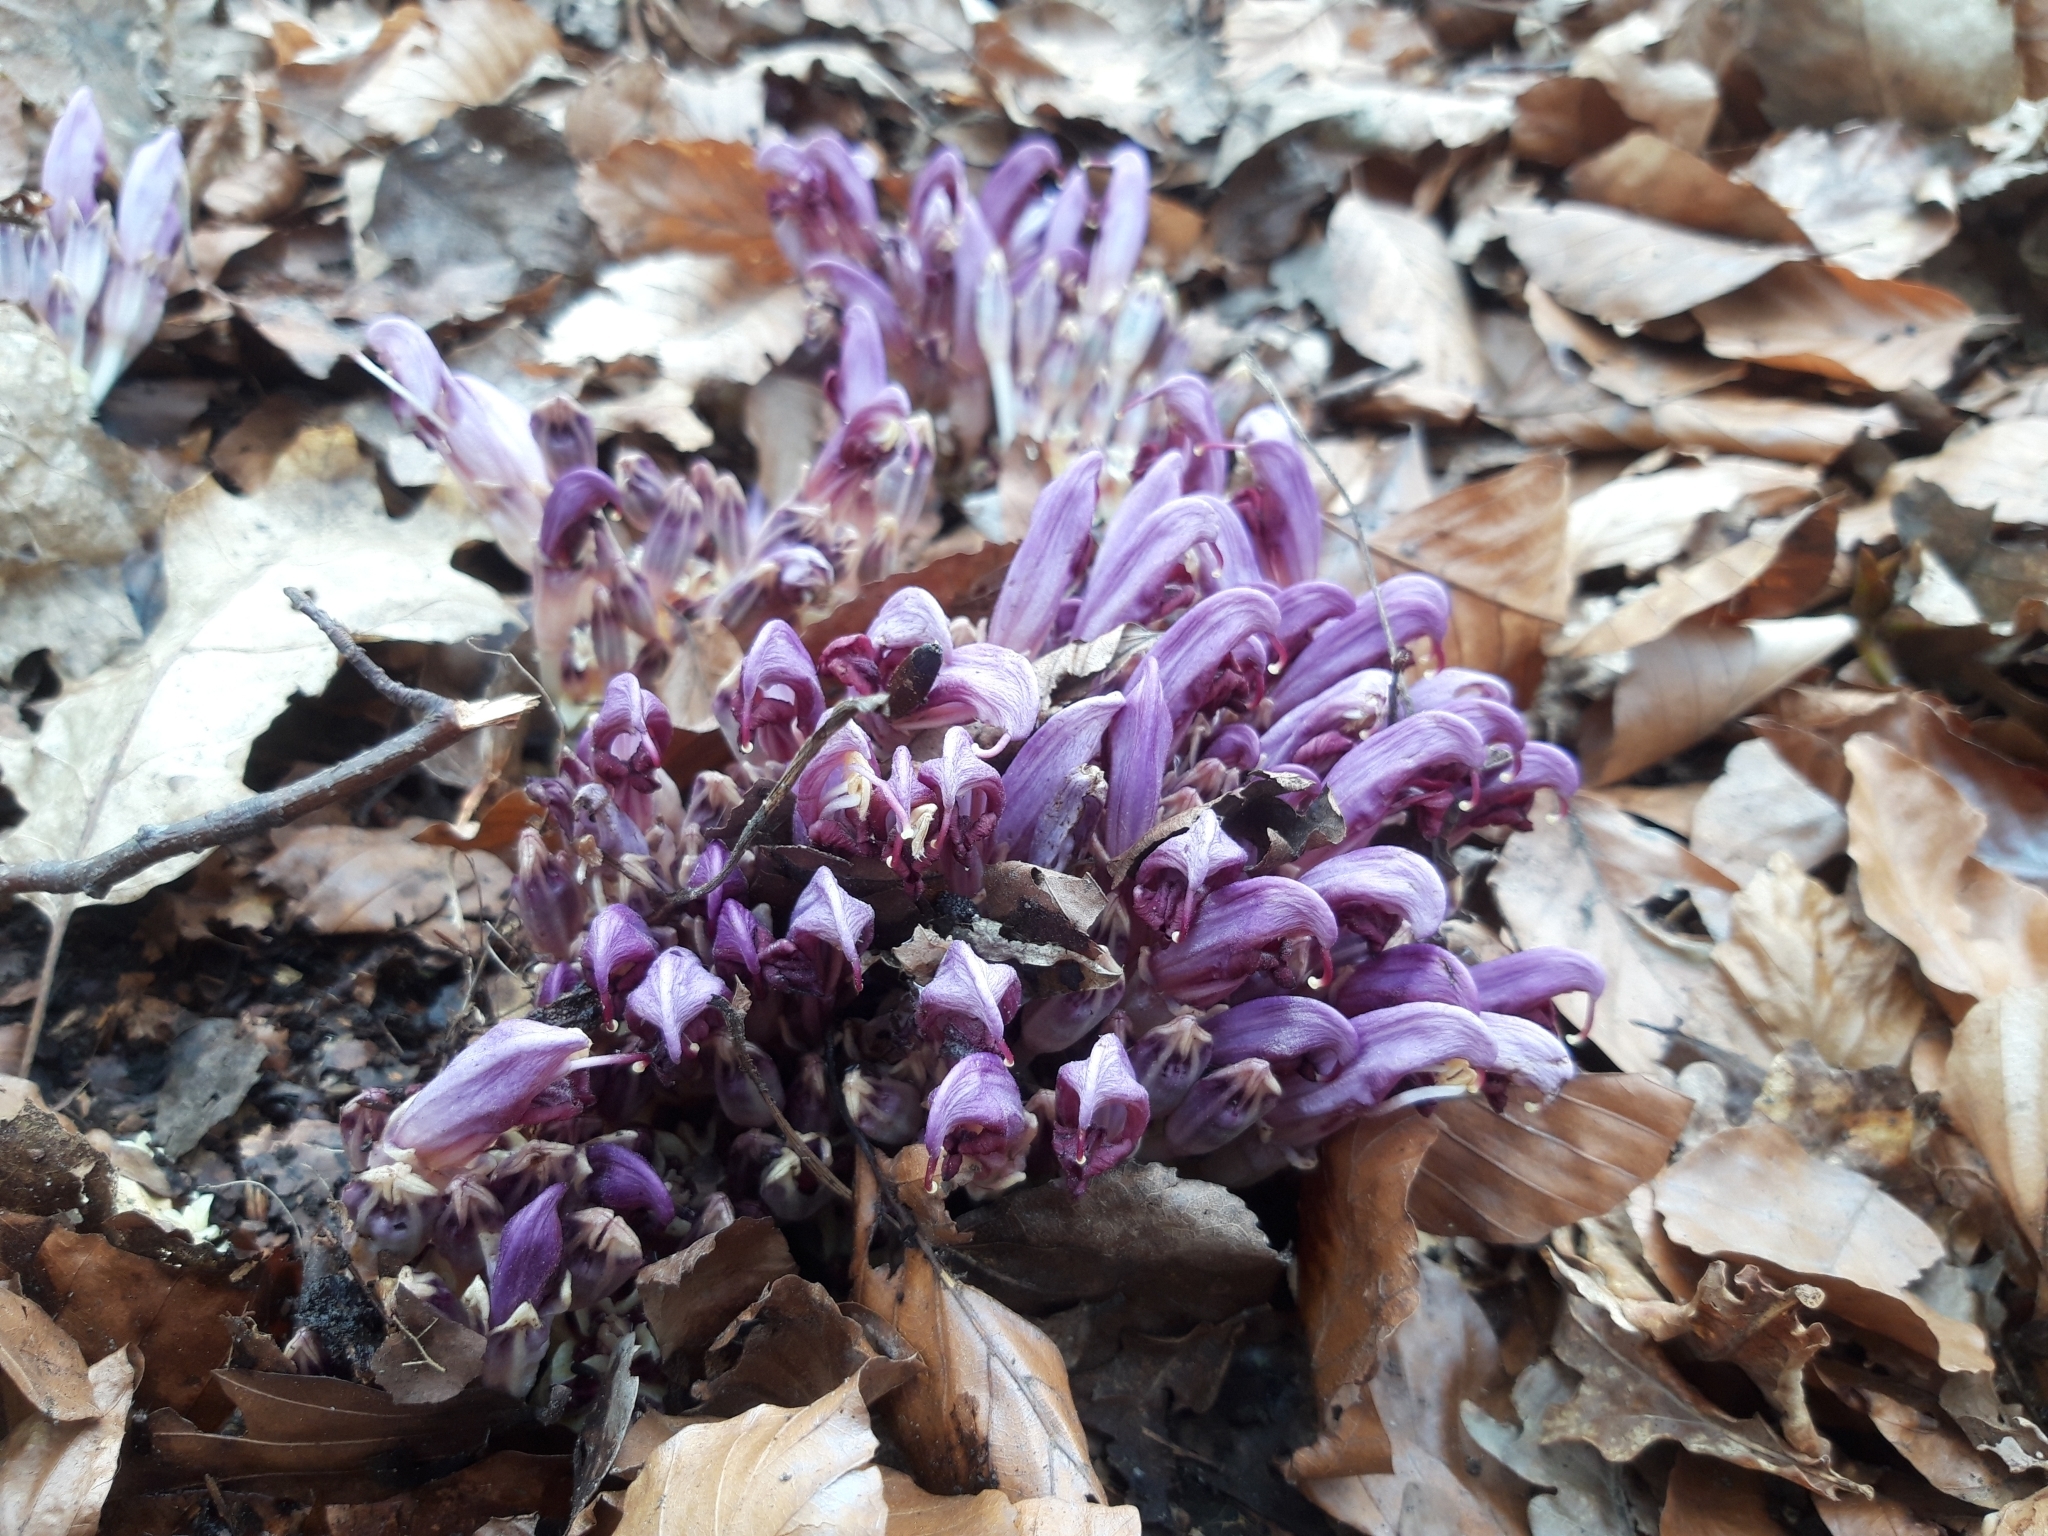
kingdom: Plantae
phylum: Tracheophyta
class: Magnoliopsida
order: Lamiales
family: Orobanchaceae
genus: Lathraea
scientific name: Lathraea clandestina
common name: Purple toothwort
